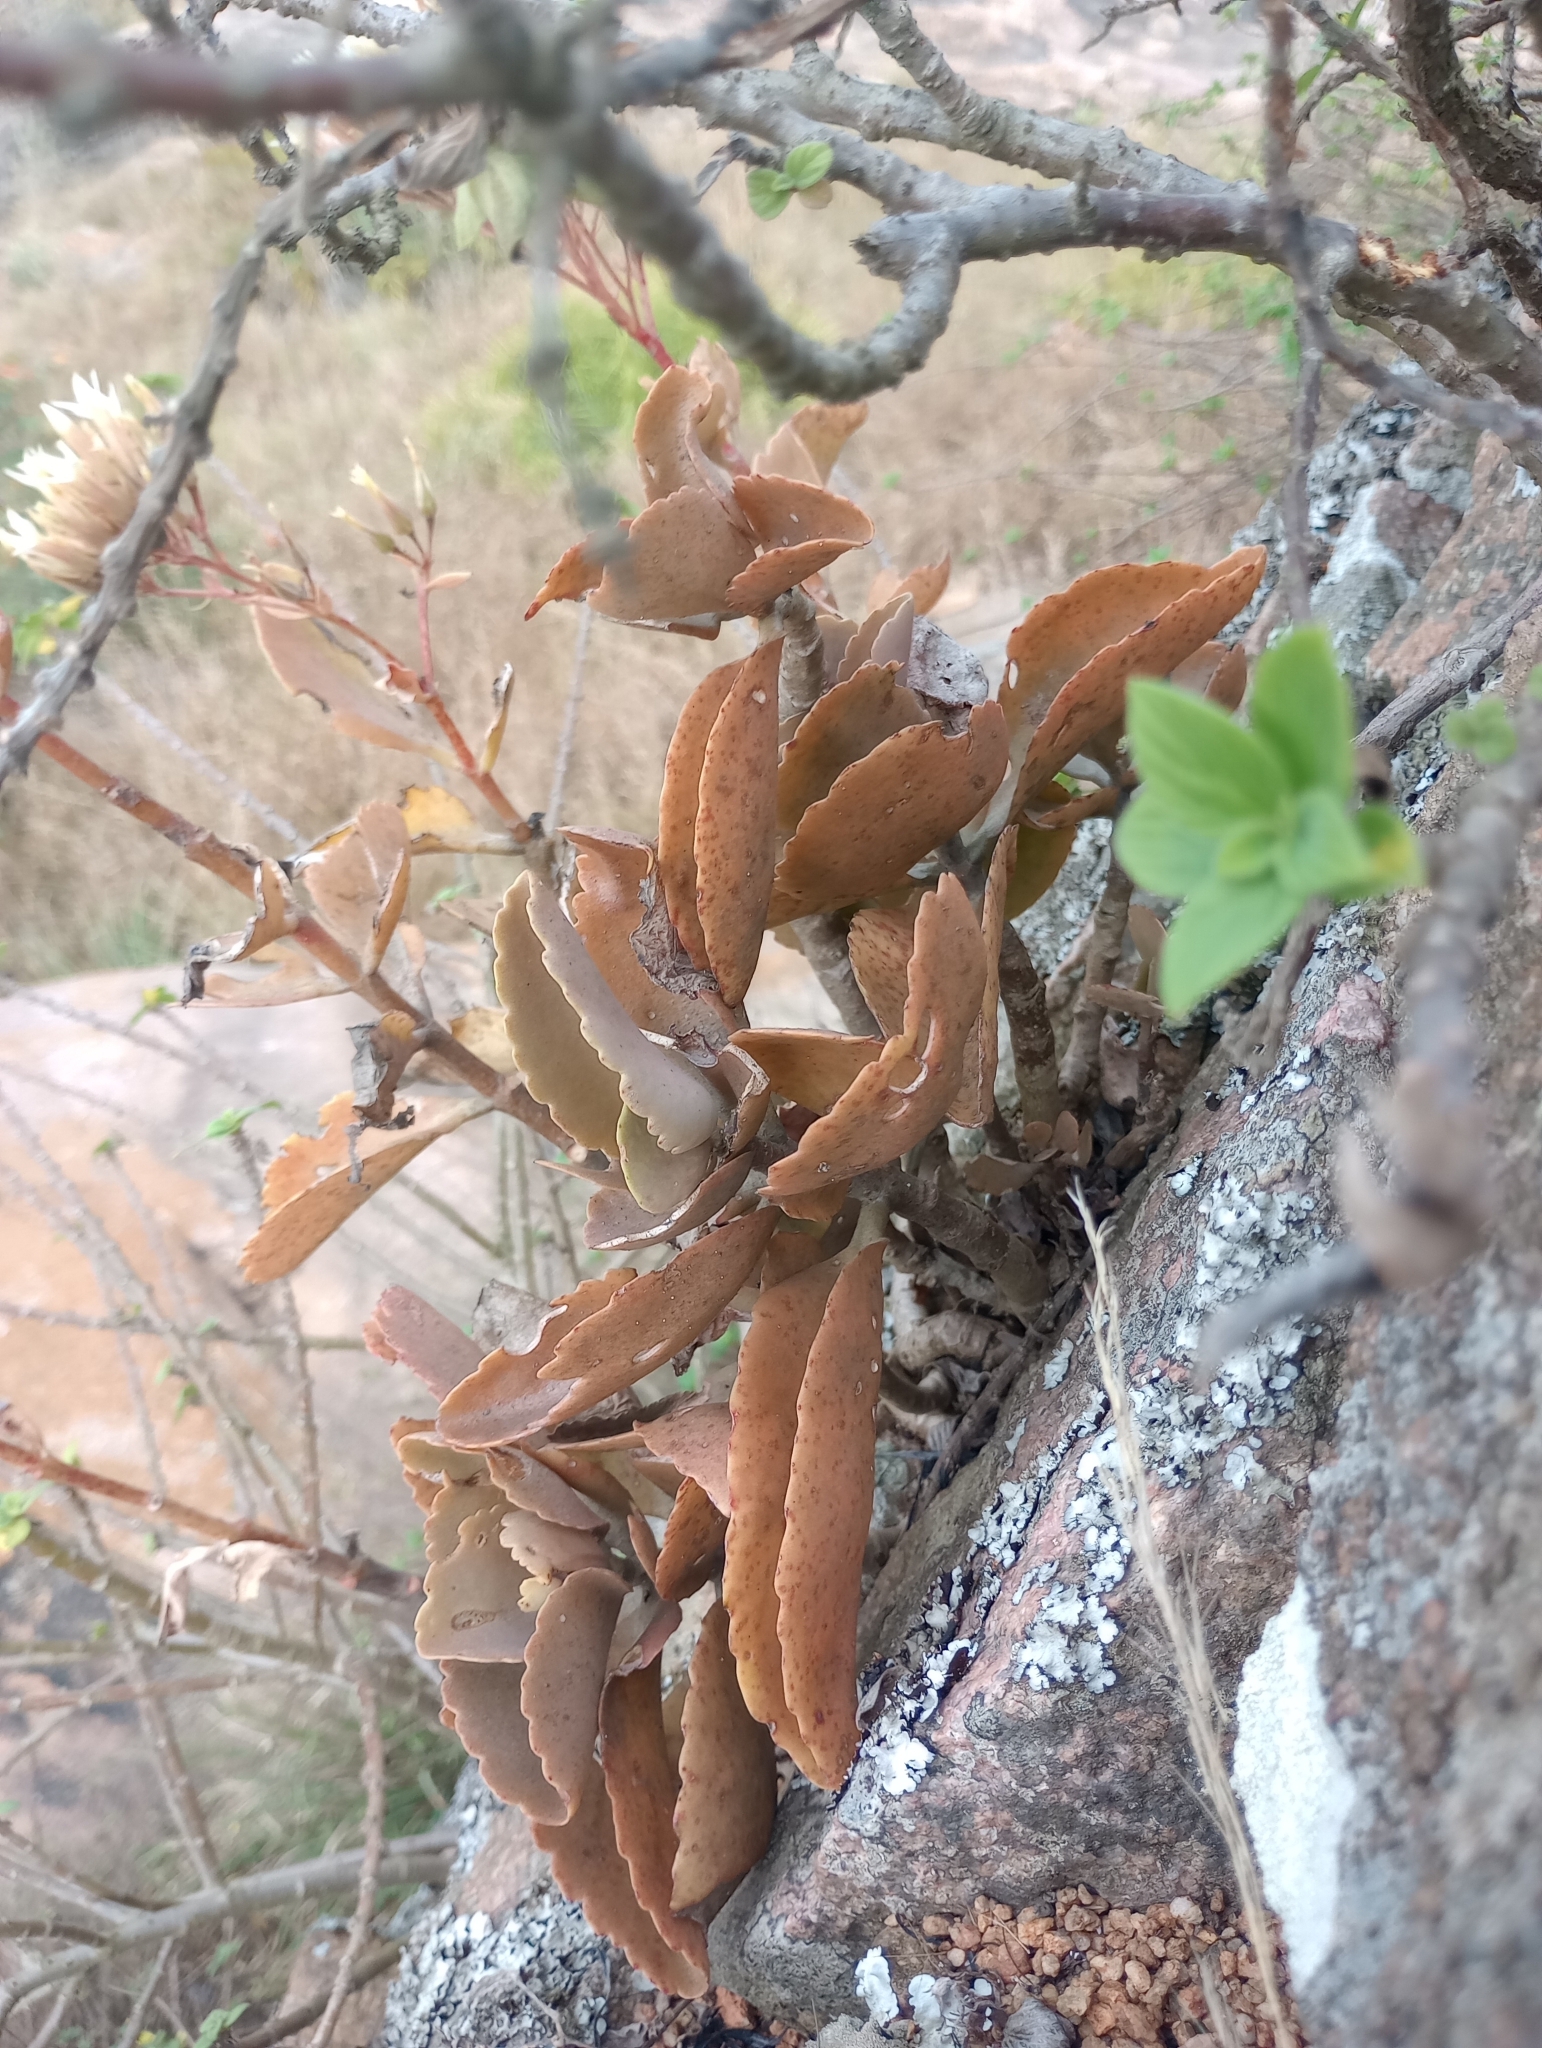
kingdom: Plantae
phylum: Tracheophyta
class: Magnoliopsida
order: Saxifragales
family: Crassulaceae
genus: Kalanchoe
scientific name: Kalanchoe bhidei
